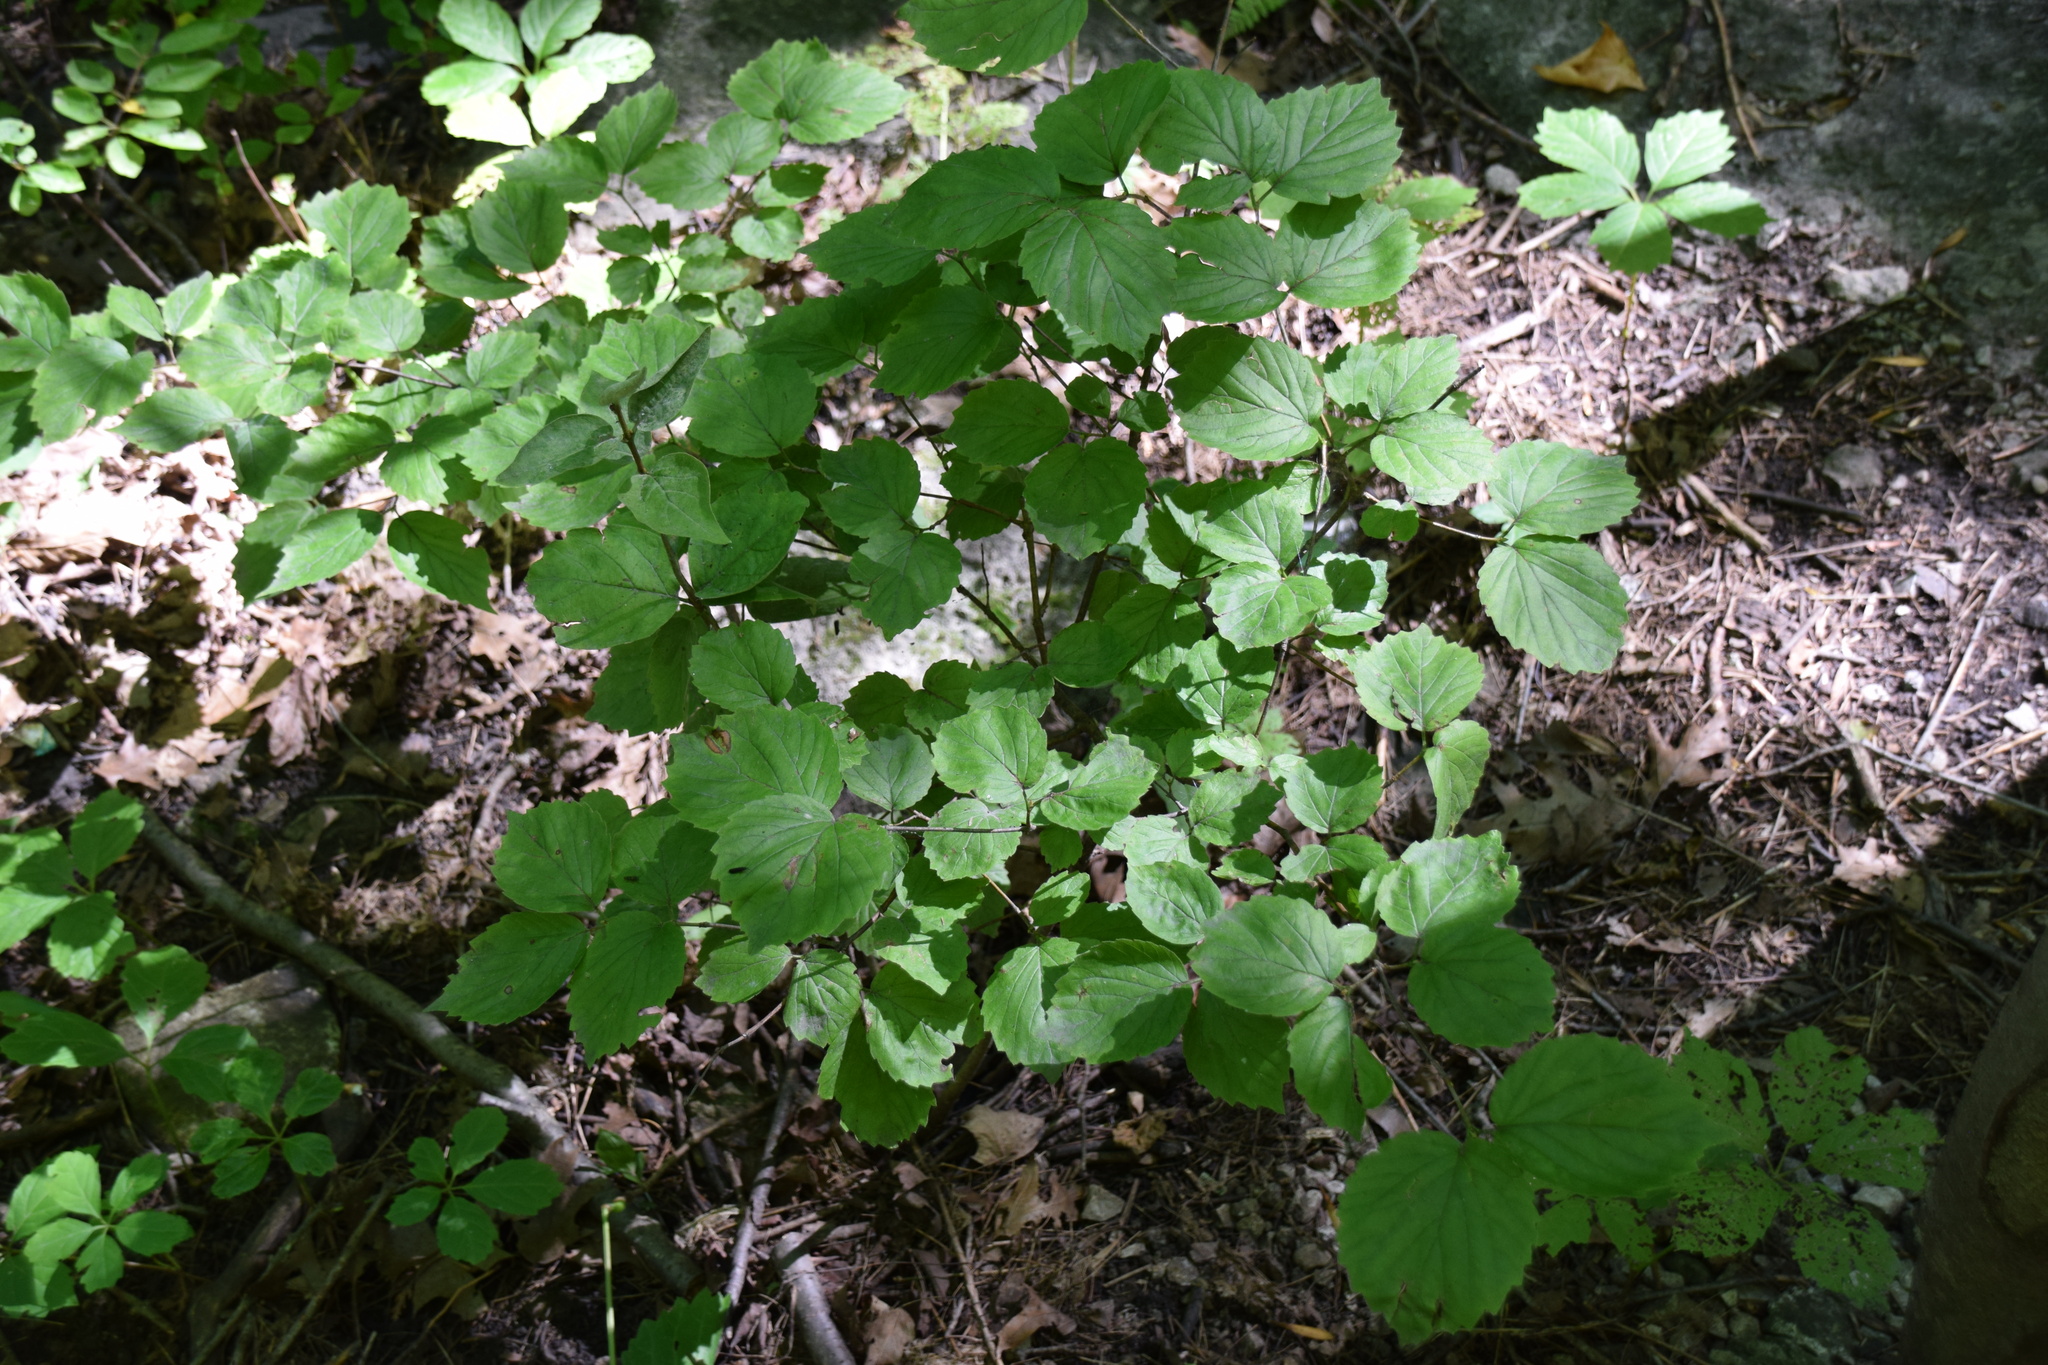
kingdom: Plantae
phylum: Tracheophyta
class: Magnoliopsida
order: Dipsacales
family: Viburnaceae
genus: Viburnum
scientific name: Viburnum rafinesqueanum
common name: Downy arrow-wood
